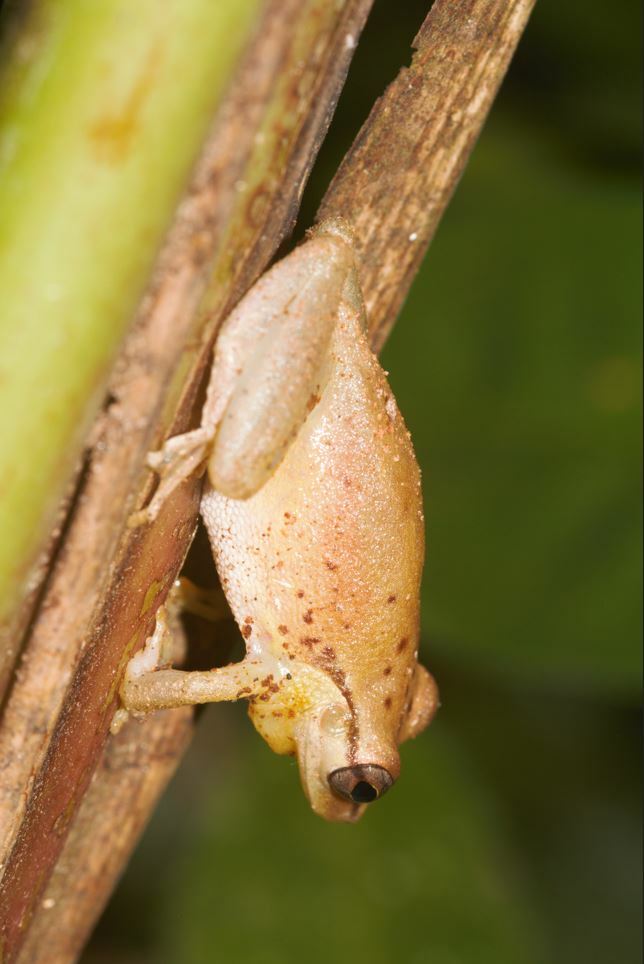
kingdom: Animalia
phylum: Chordata
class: Amphibia
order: Anura
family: Hylidae
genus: Scinax
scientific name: Scinax boesemani
